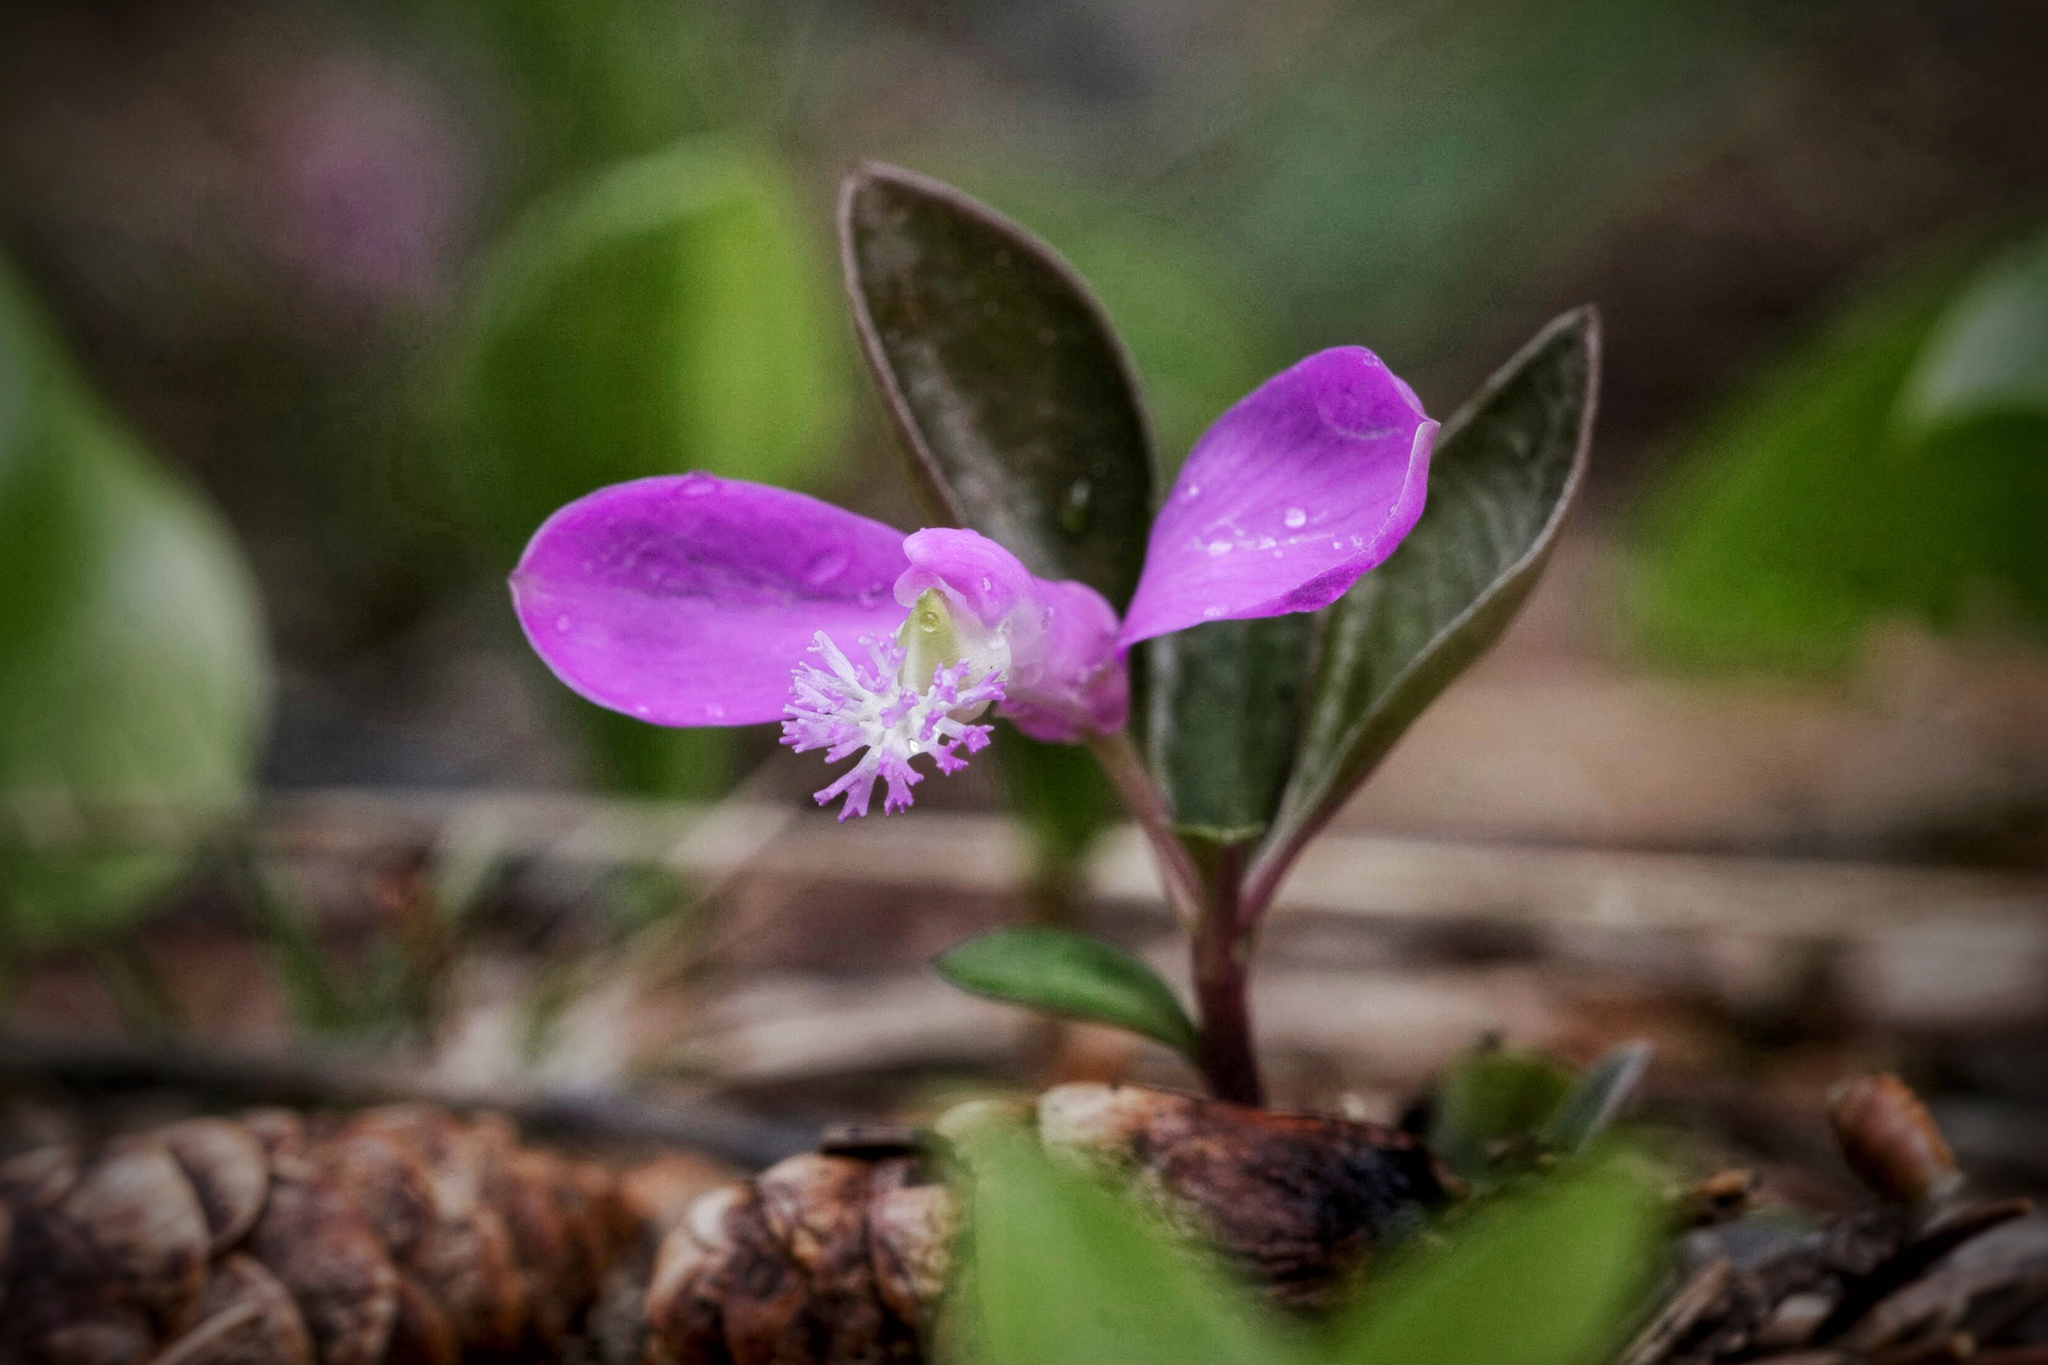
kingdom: Plantae
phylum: Tracheophyta
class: Magnoliopsida
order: Fabales
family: Polygalaceae
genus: Polygaloides
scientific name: Polygaloides paucifolia
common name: Bird-on-the-wing
